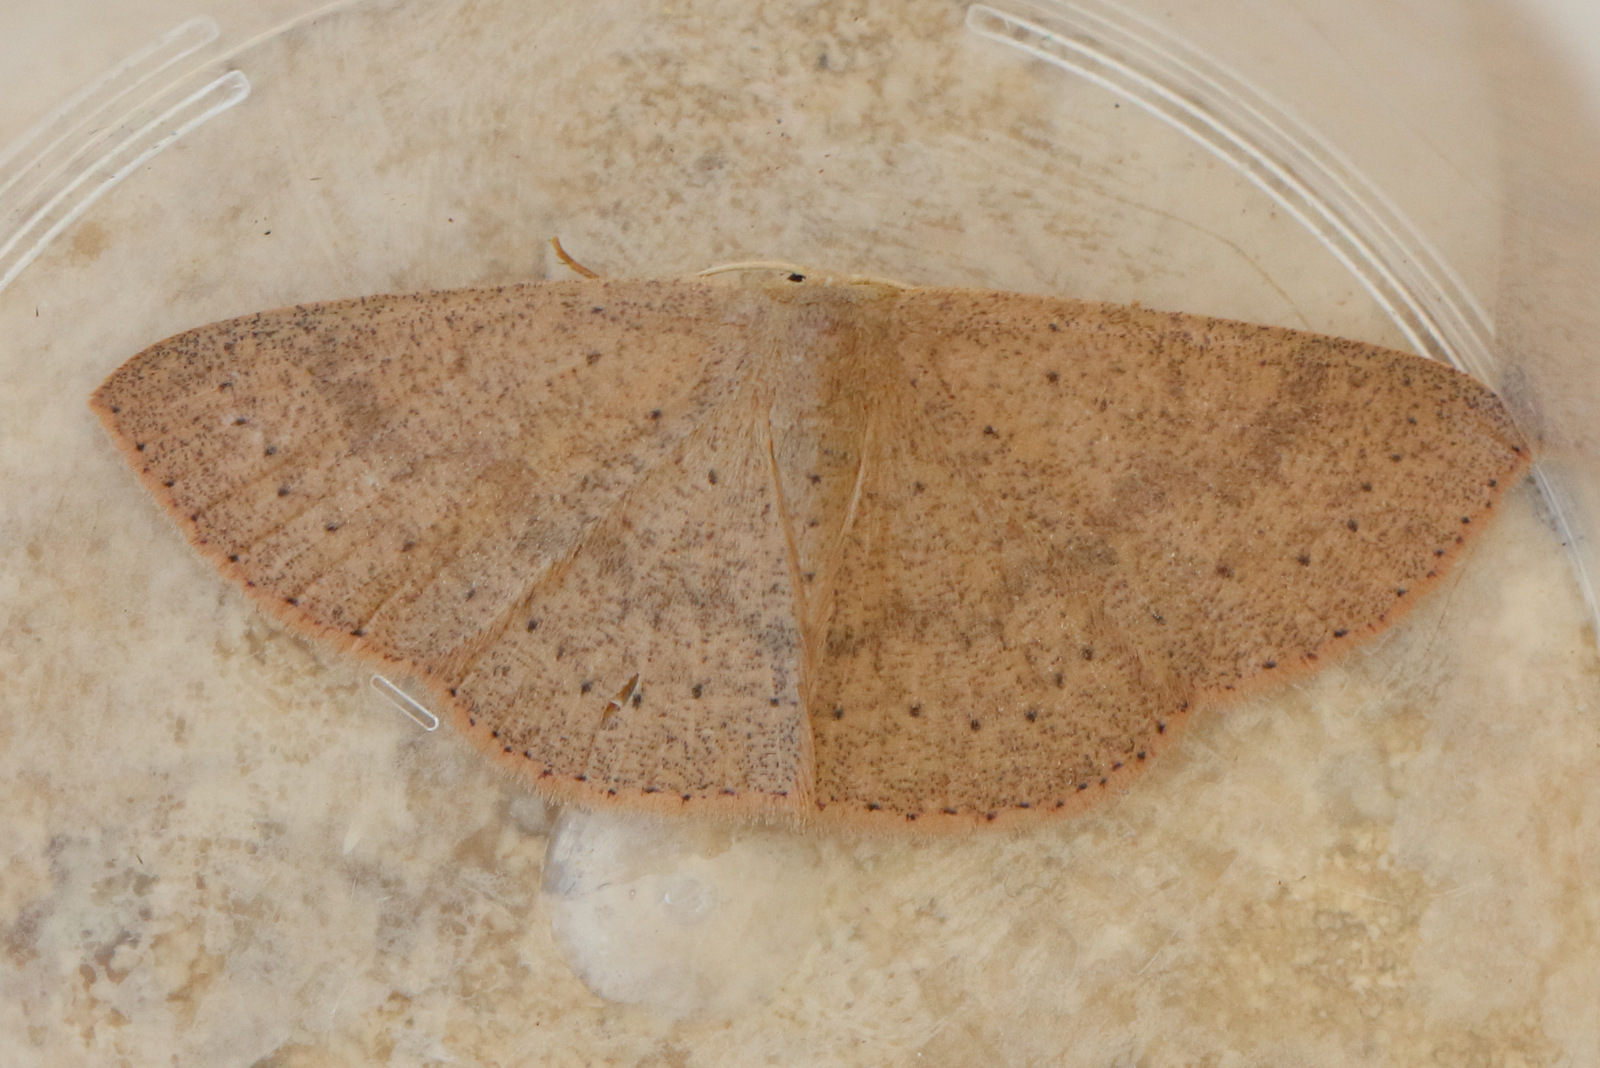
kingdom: Animalia
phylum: Arthropoda
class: Insecta
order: Lepidoptera
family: Geometridae
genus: Cyclophora
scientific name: Cyclophora obstataria
